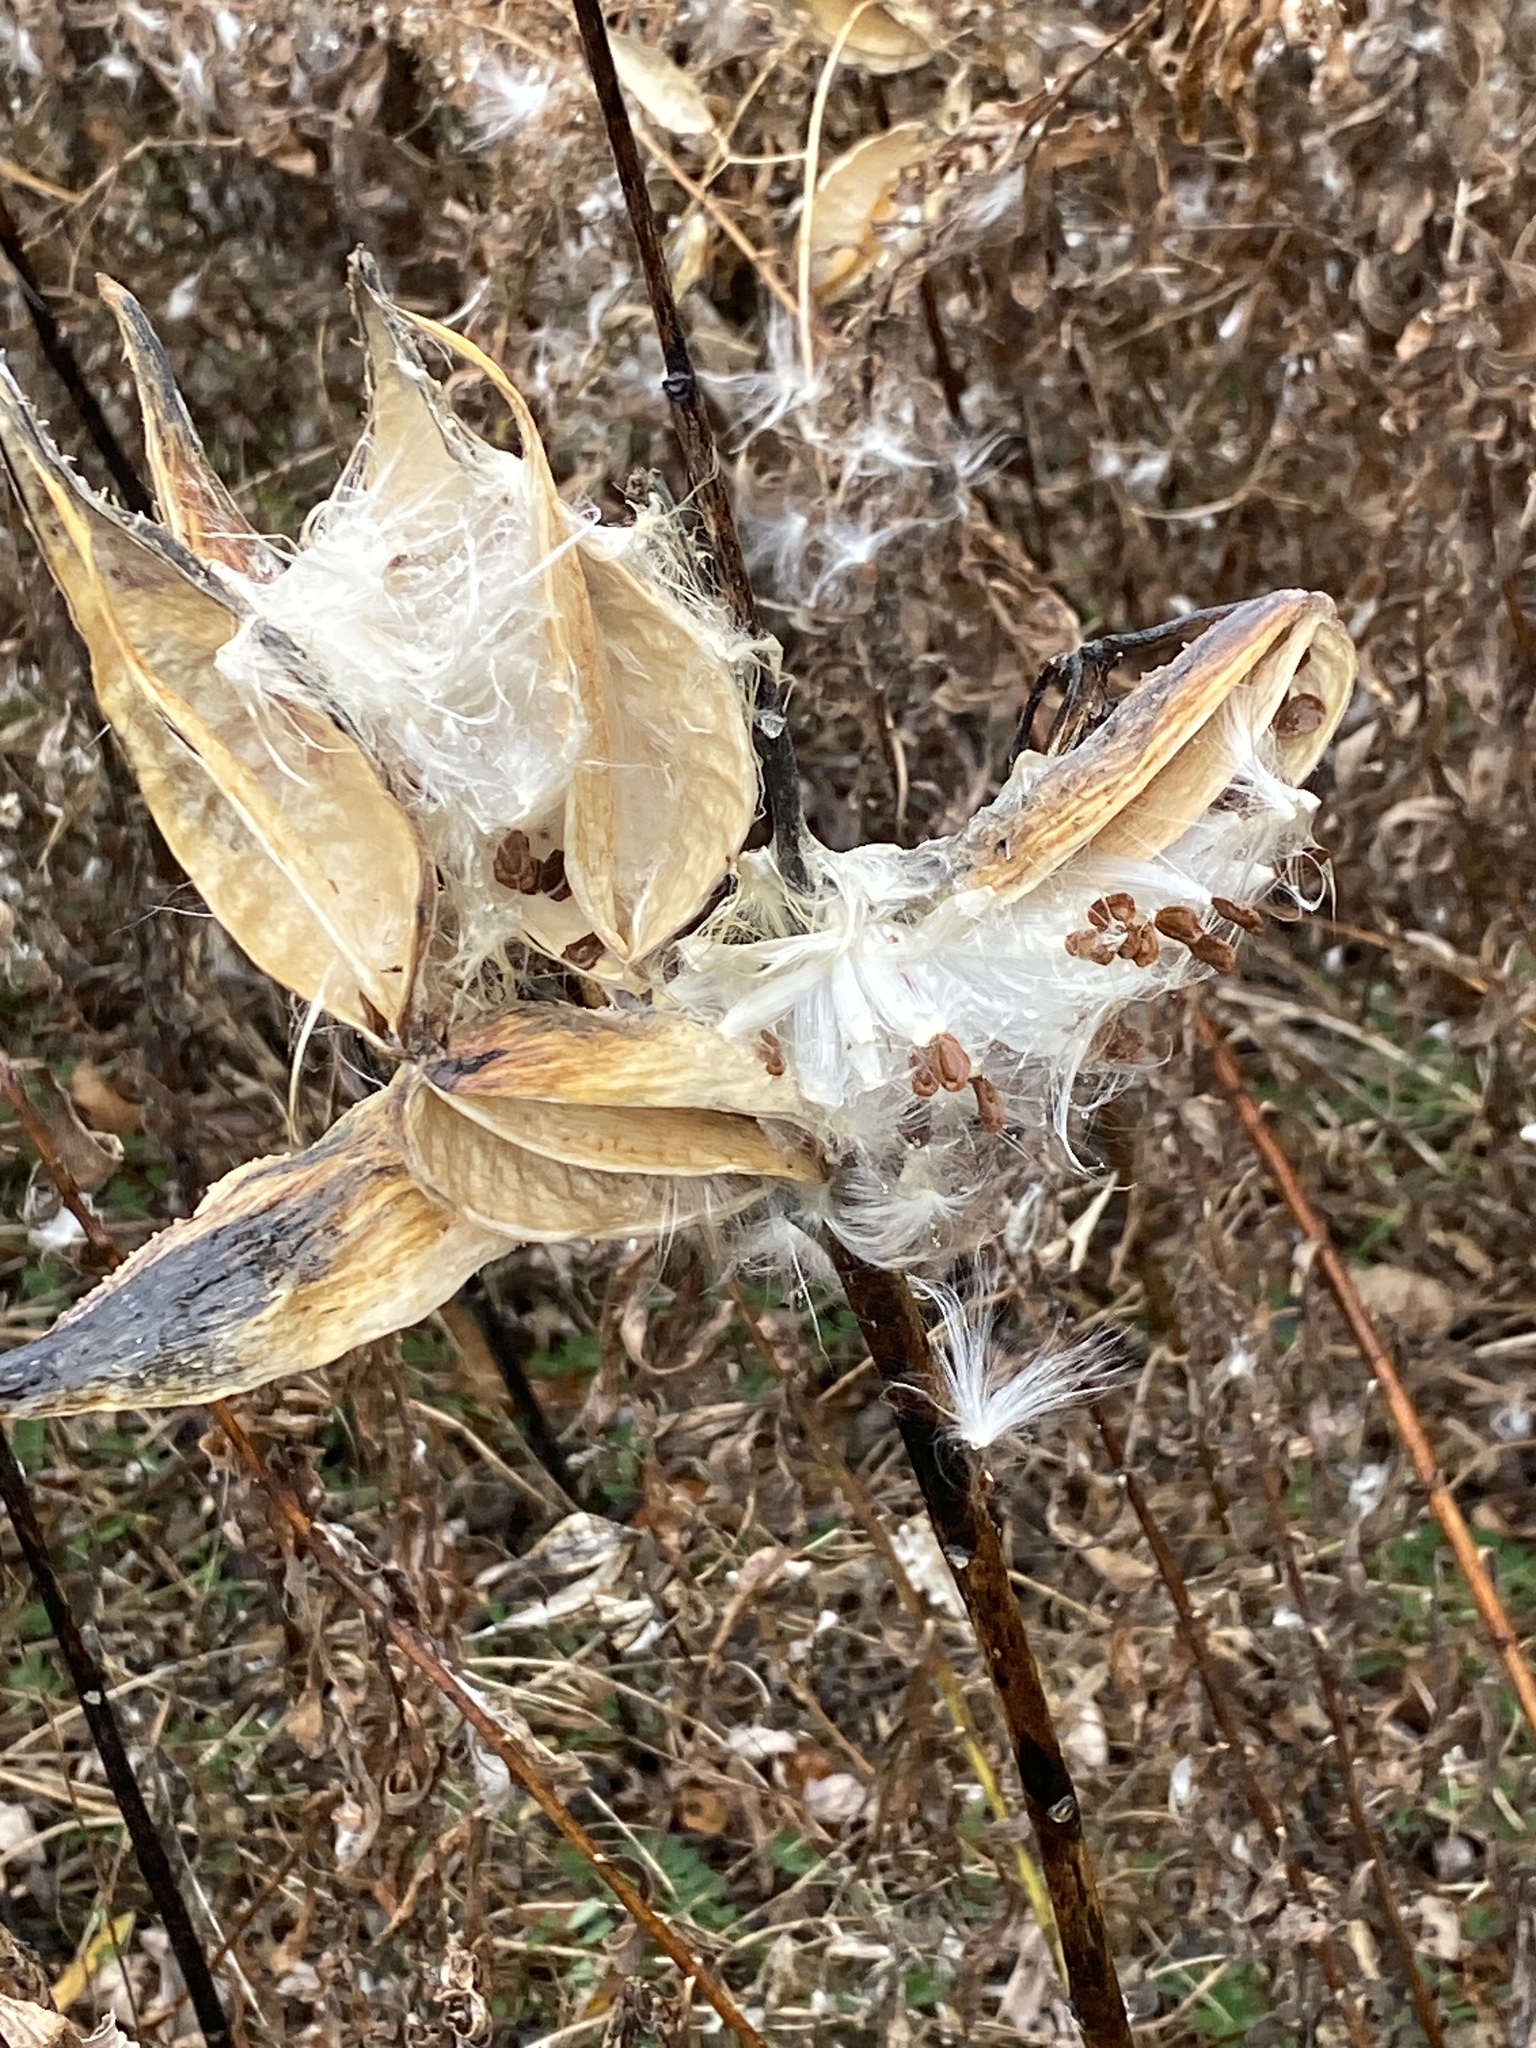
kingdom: Plantae
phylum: Tracheophyta
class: Magnoliopsida
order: Gentianales
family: Apocynaceae
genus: Asclepias
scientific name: Asclepias syriaca
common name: Common milkweed
